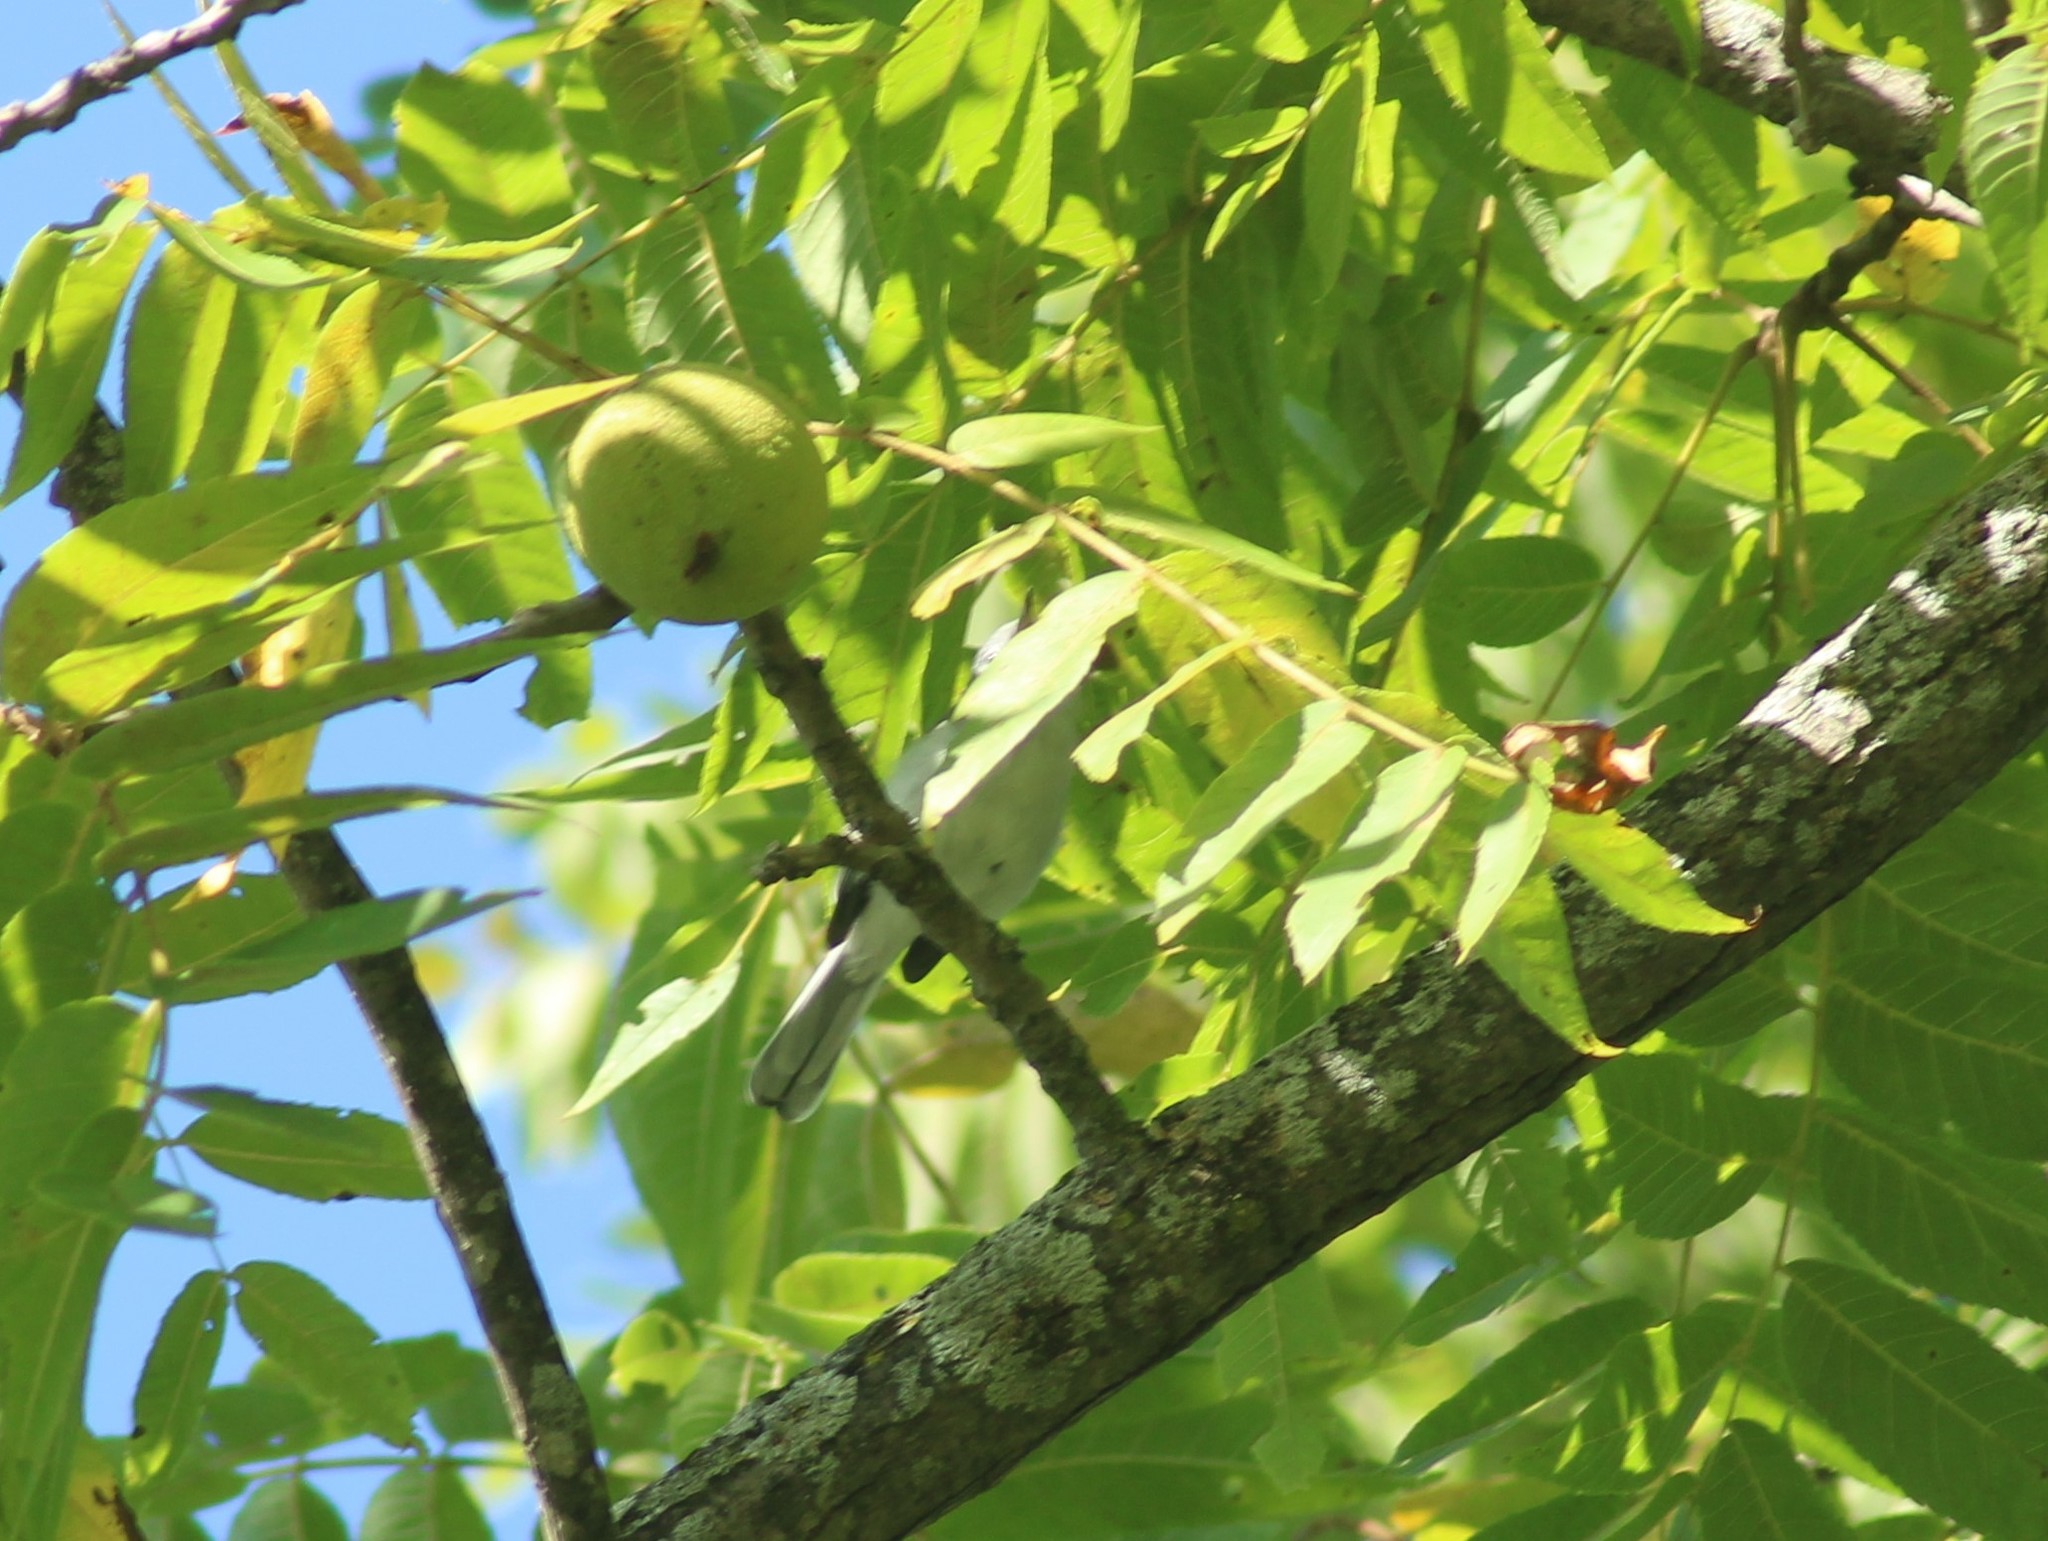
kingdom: Animalia
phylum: Chordata
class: Aves
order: Passeriformes
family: Polioptilidae
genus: Polioptila
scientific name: Polioptila caerulea
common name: Blue-gray gnatcatcher
